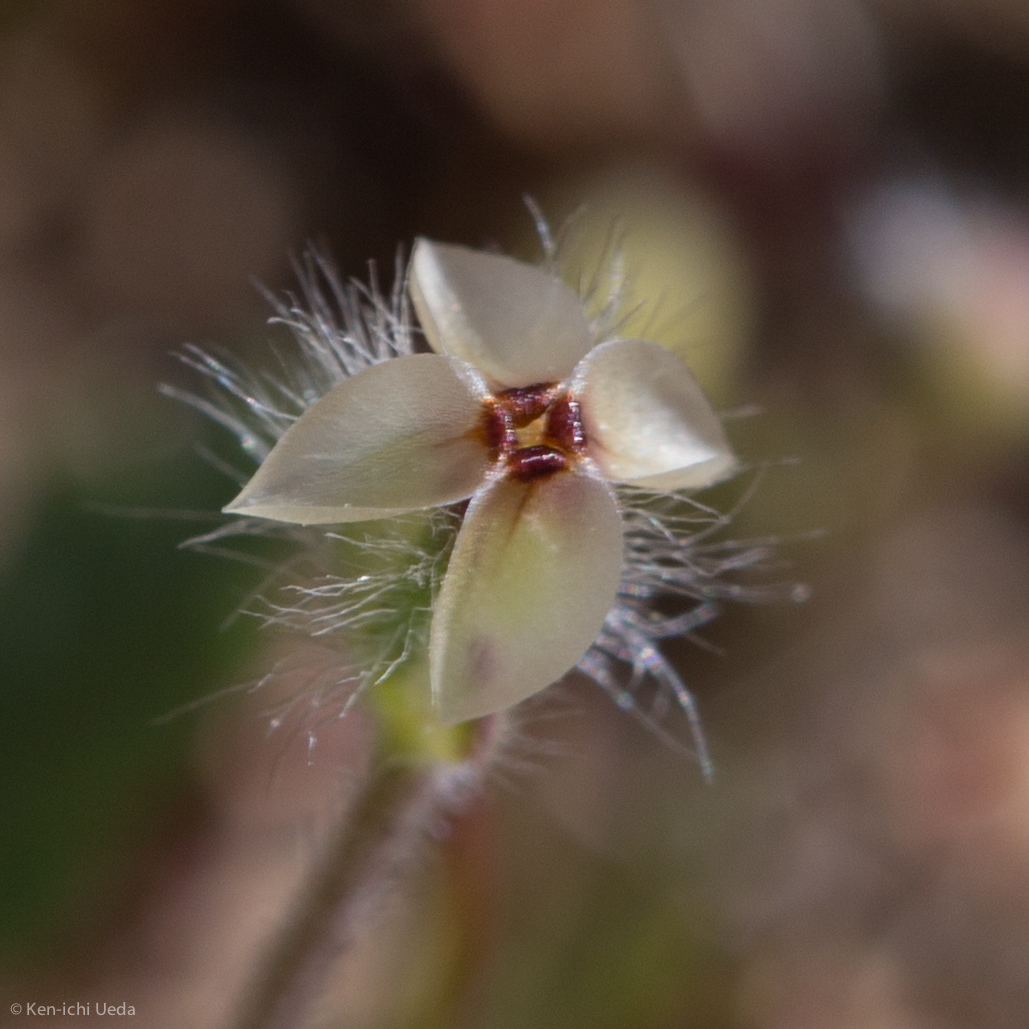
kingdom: Plantae
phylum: Tracheophyta
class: Magnoliopsida
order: Lamiales
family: Plantaginaceae
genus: Plantago
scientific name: Plantago erecta
